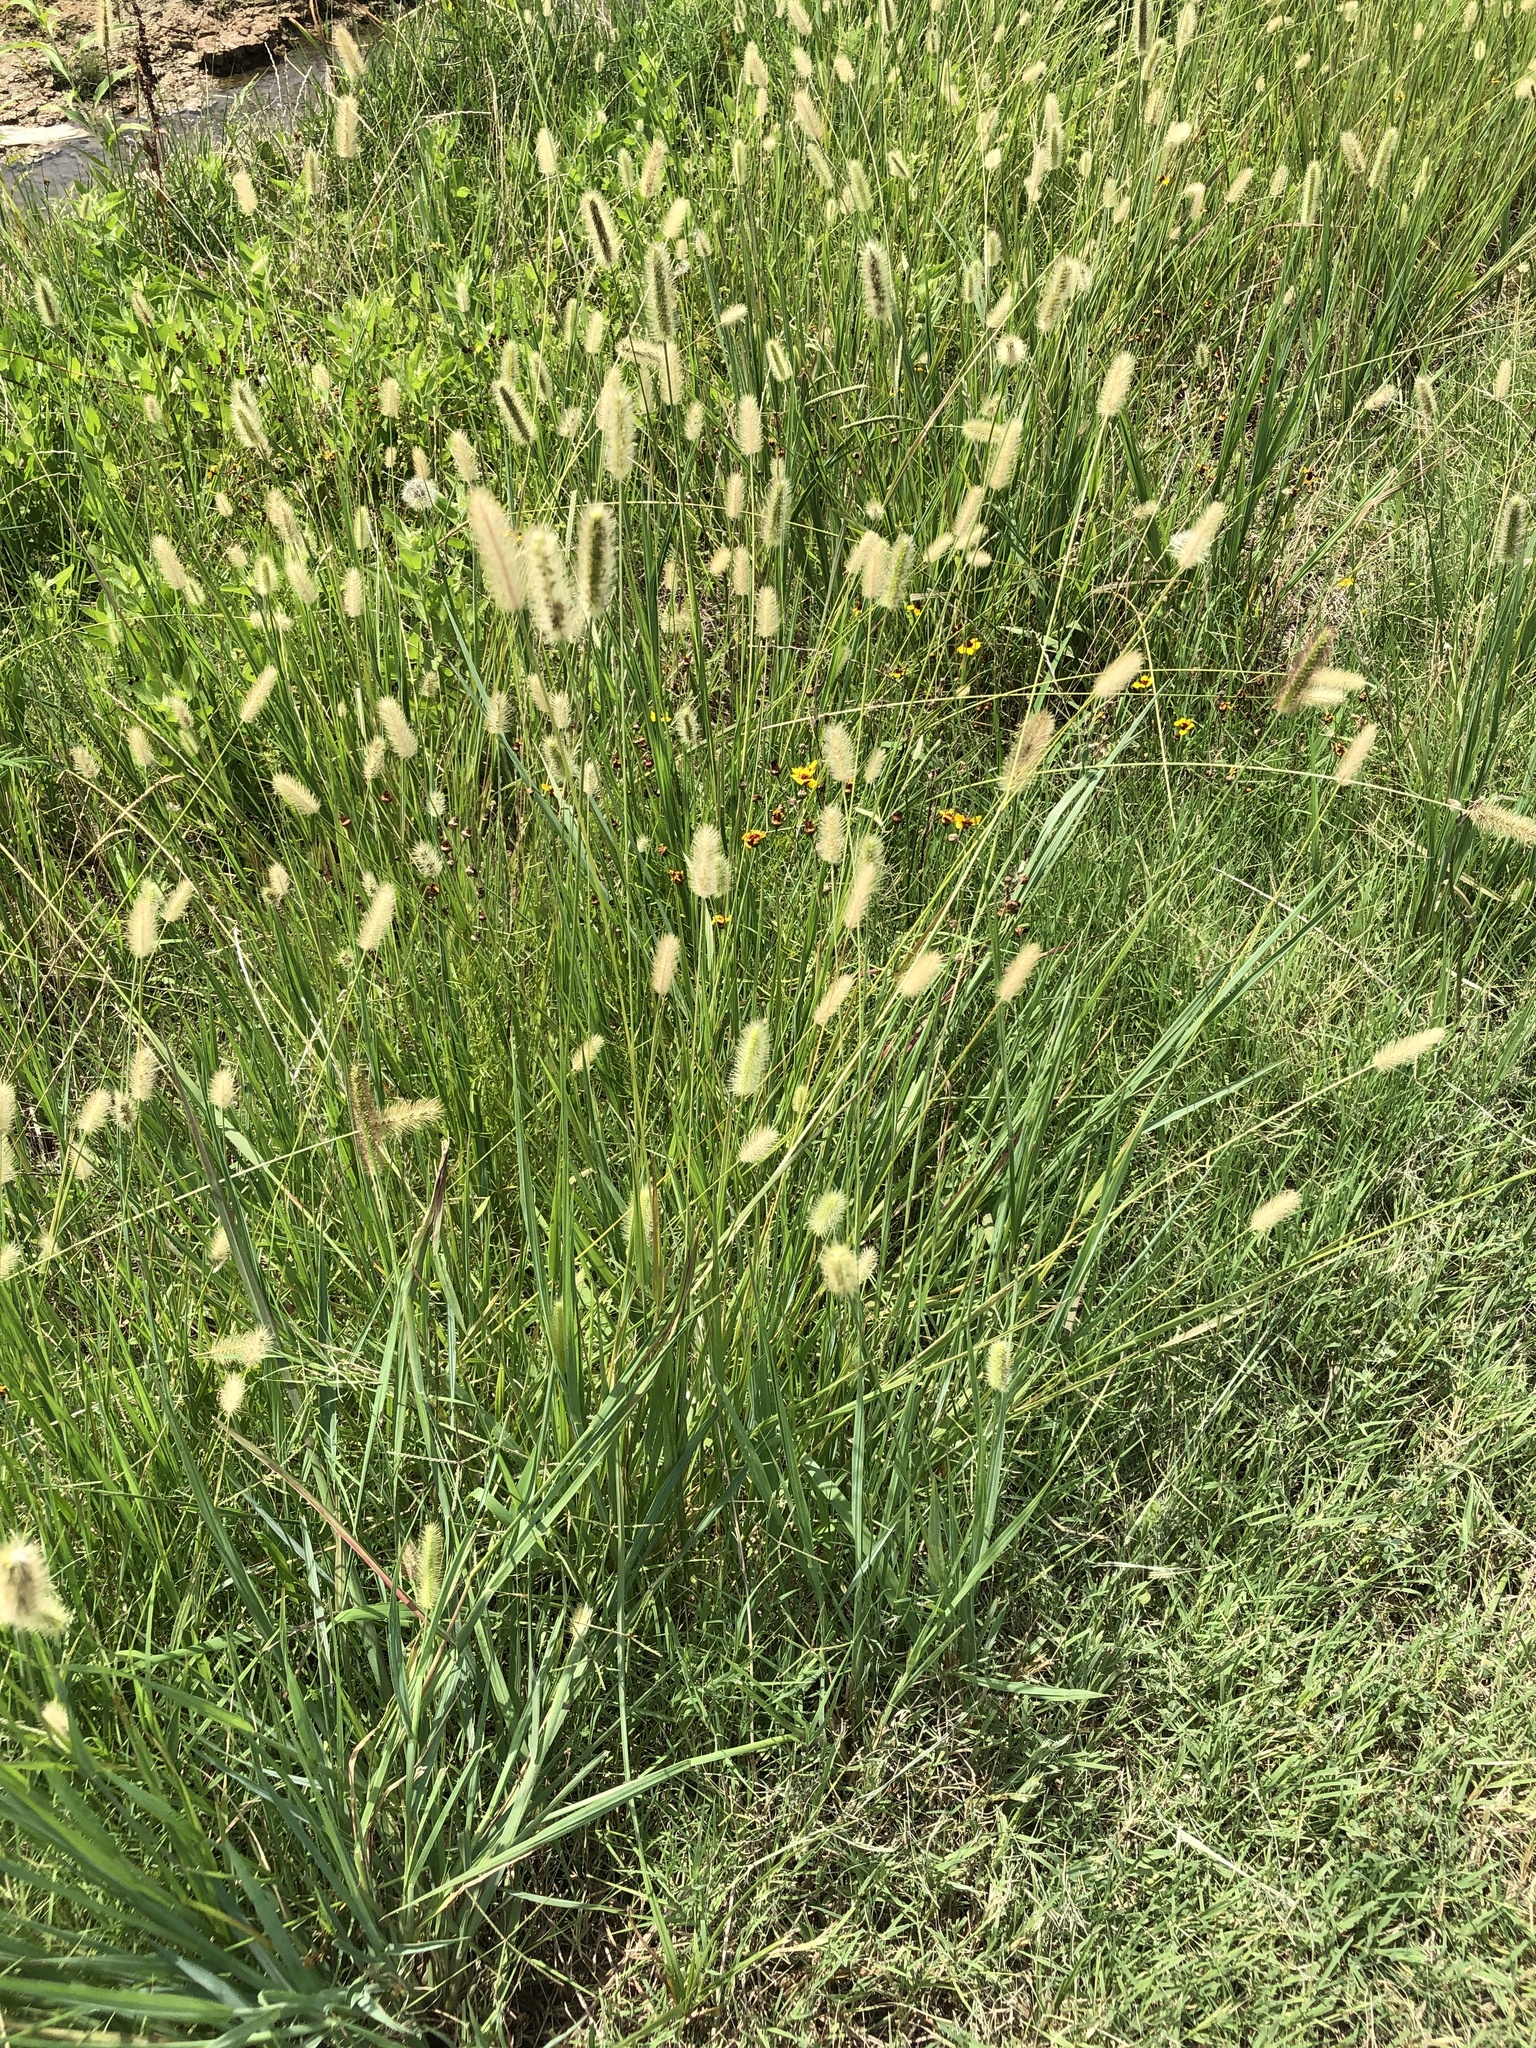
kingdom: Plantae
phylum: Tracheophyta
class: Liliopsida
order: Poales
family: Poaceae
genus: Setaria
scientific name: Setaria parviflora
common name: Knotroot bristle-grass
